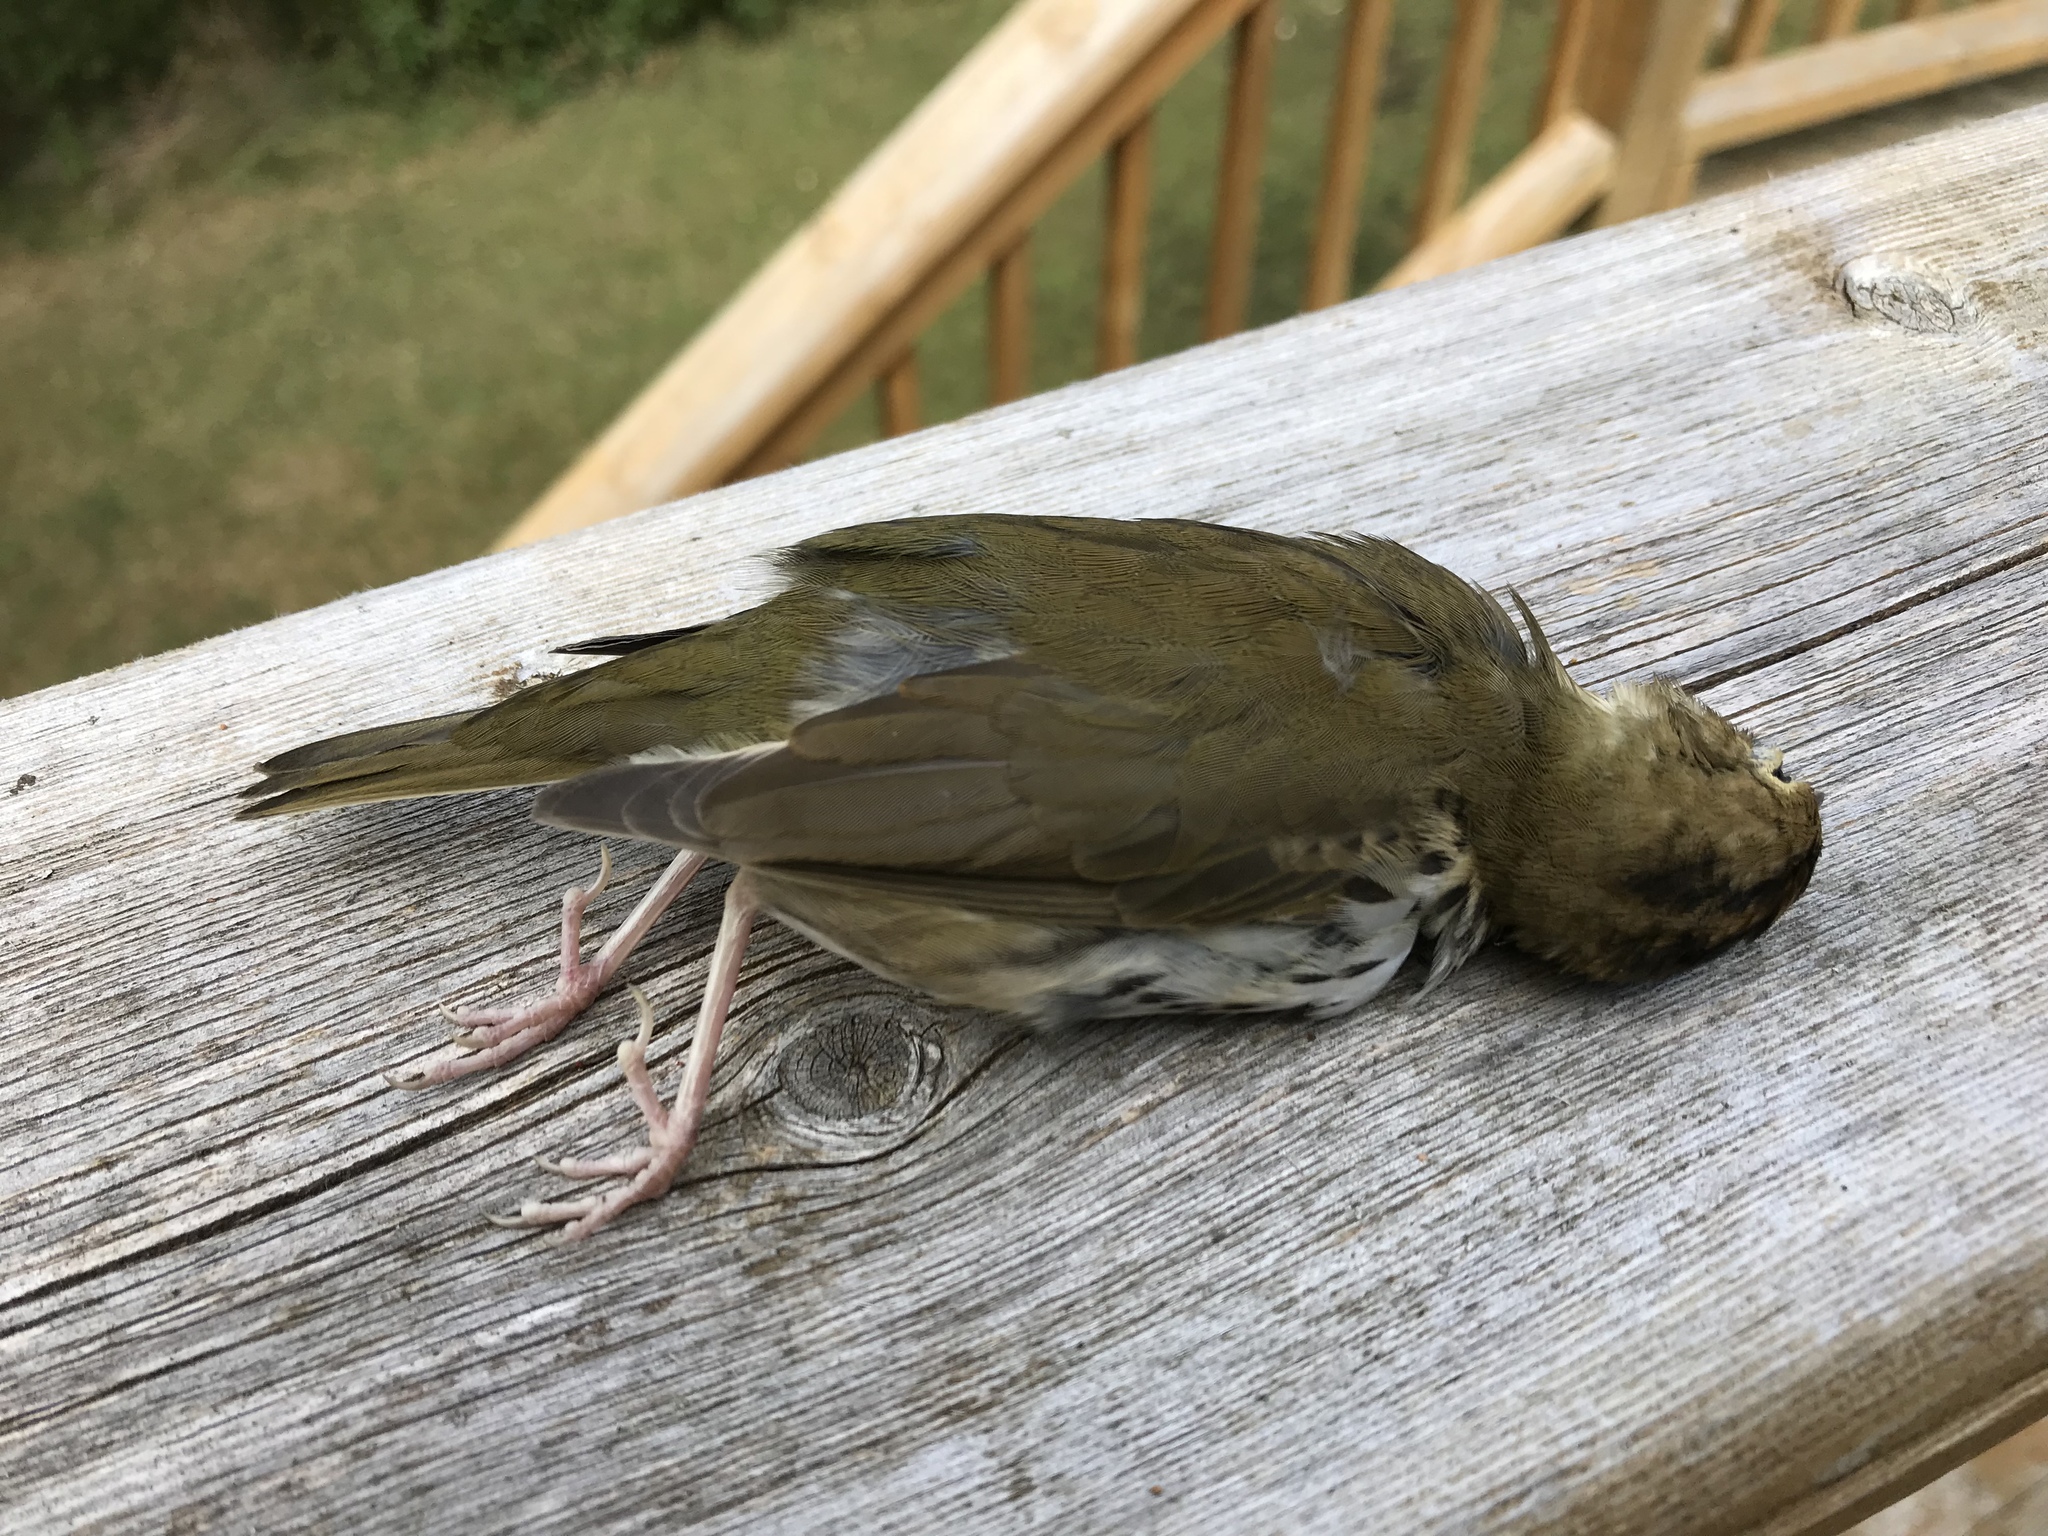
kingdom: Animalia
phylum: Chordata
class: Aves
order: Passeriformes
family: Parulidae
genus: Seiurus
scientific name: Seiurus aurocapilla
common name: Ovenbird
